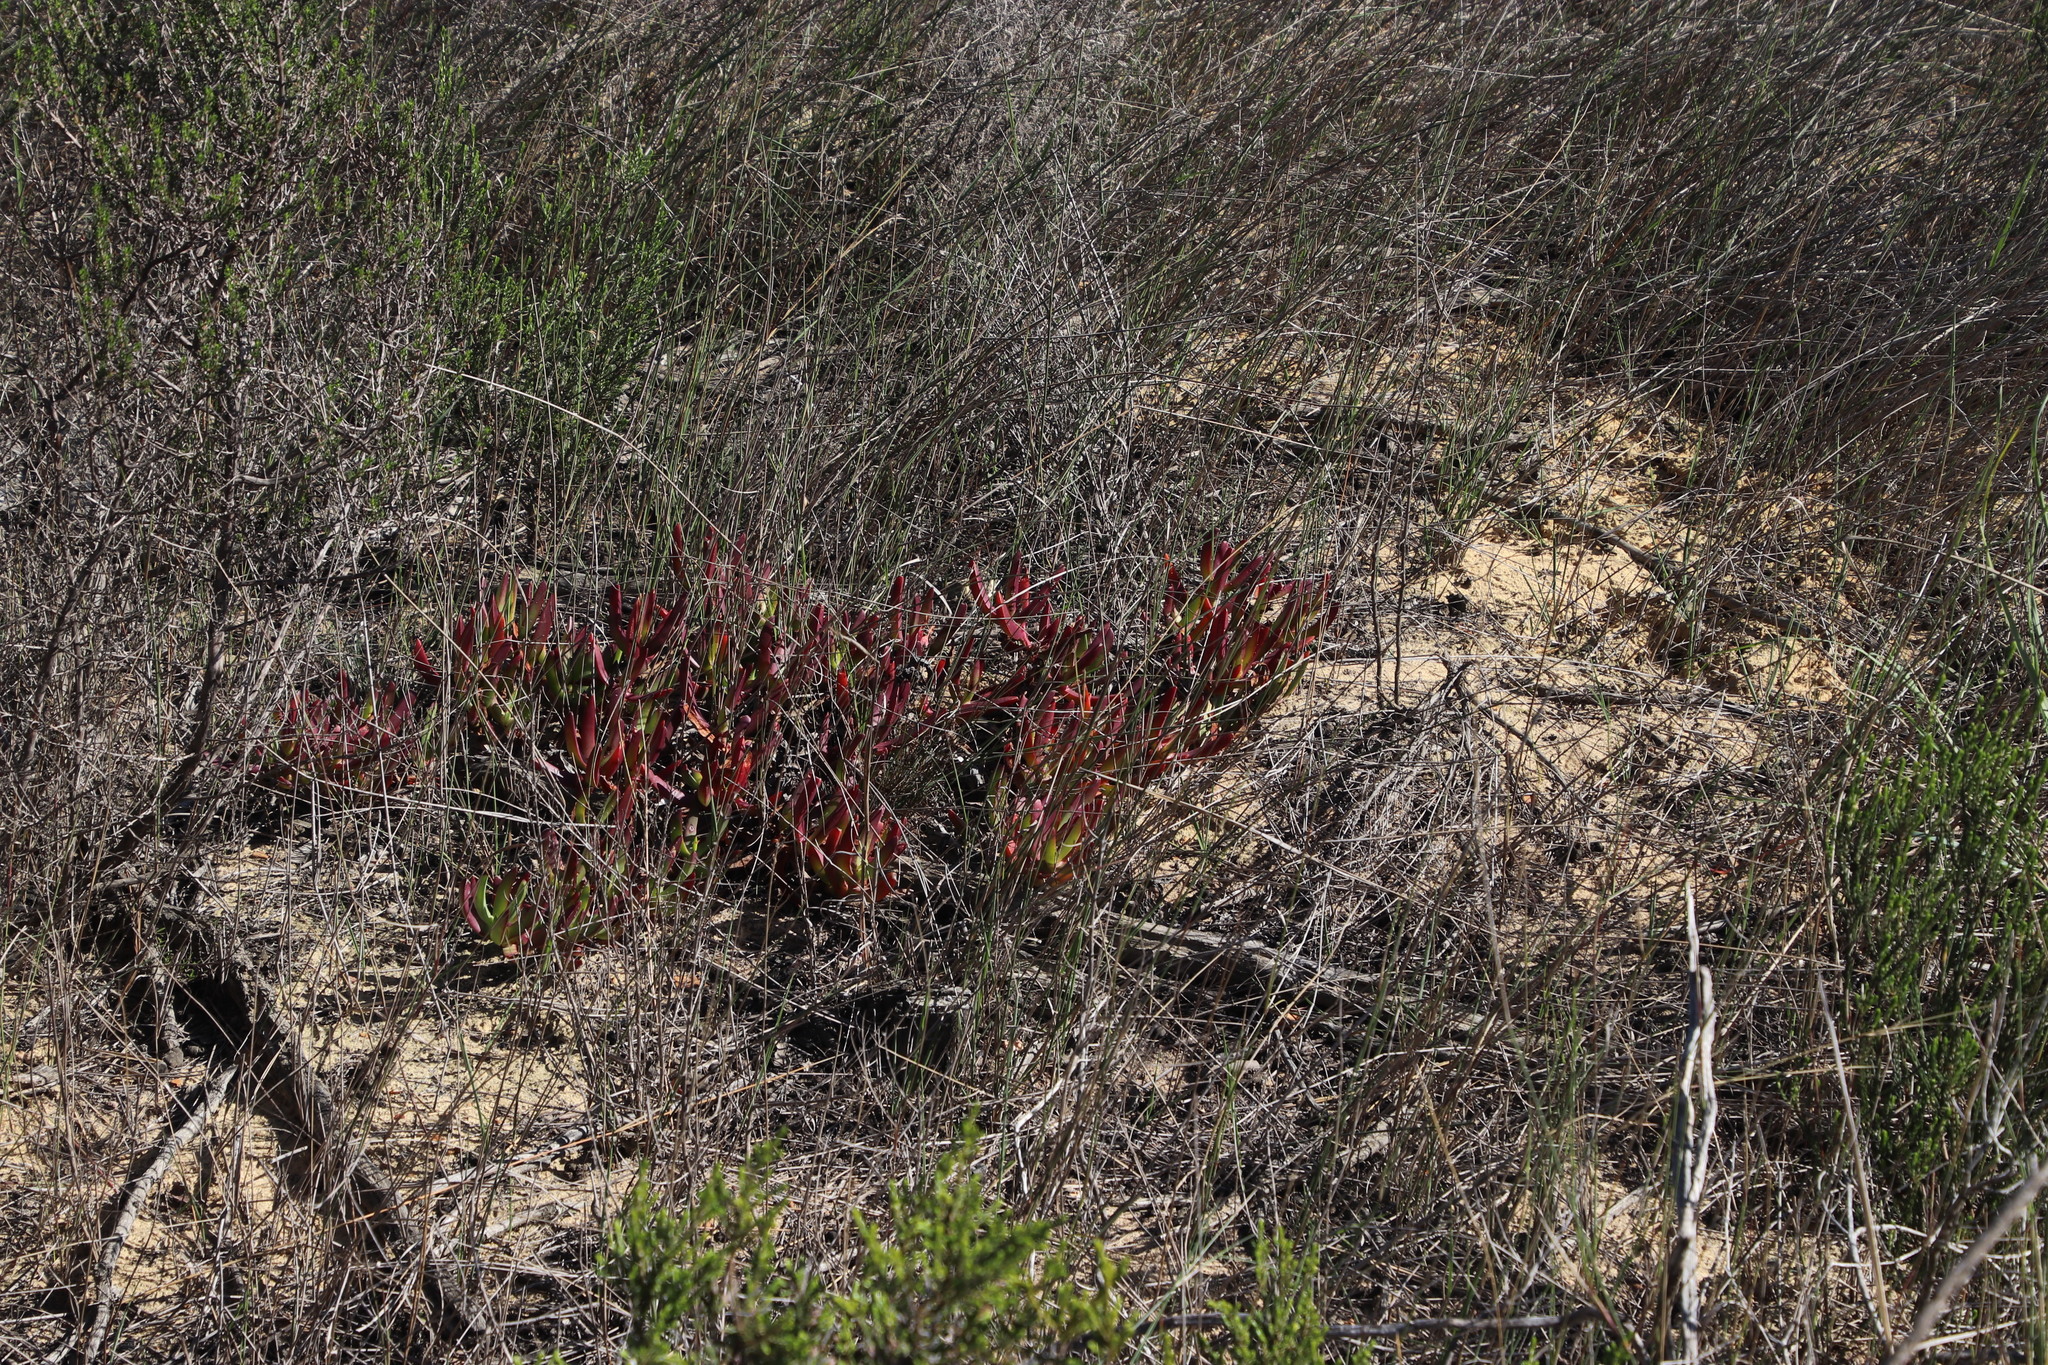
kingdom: Plantae
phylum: Tracheophyta
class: Magnoliopsida
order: Caryophyllales
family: Aizoaceae
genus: Carpobrotus
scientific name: Carpobrotus edulis
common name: Hottentot-fig
